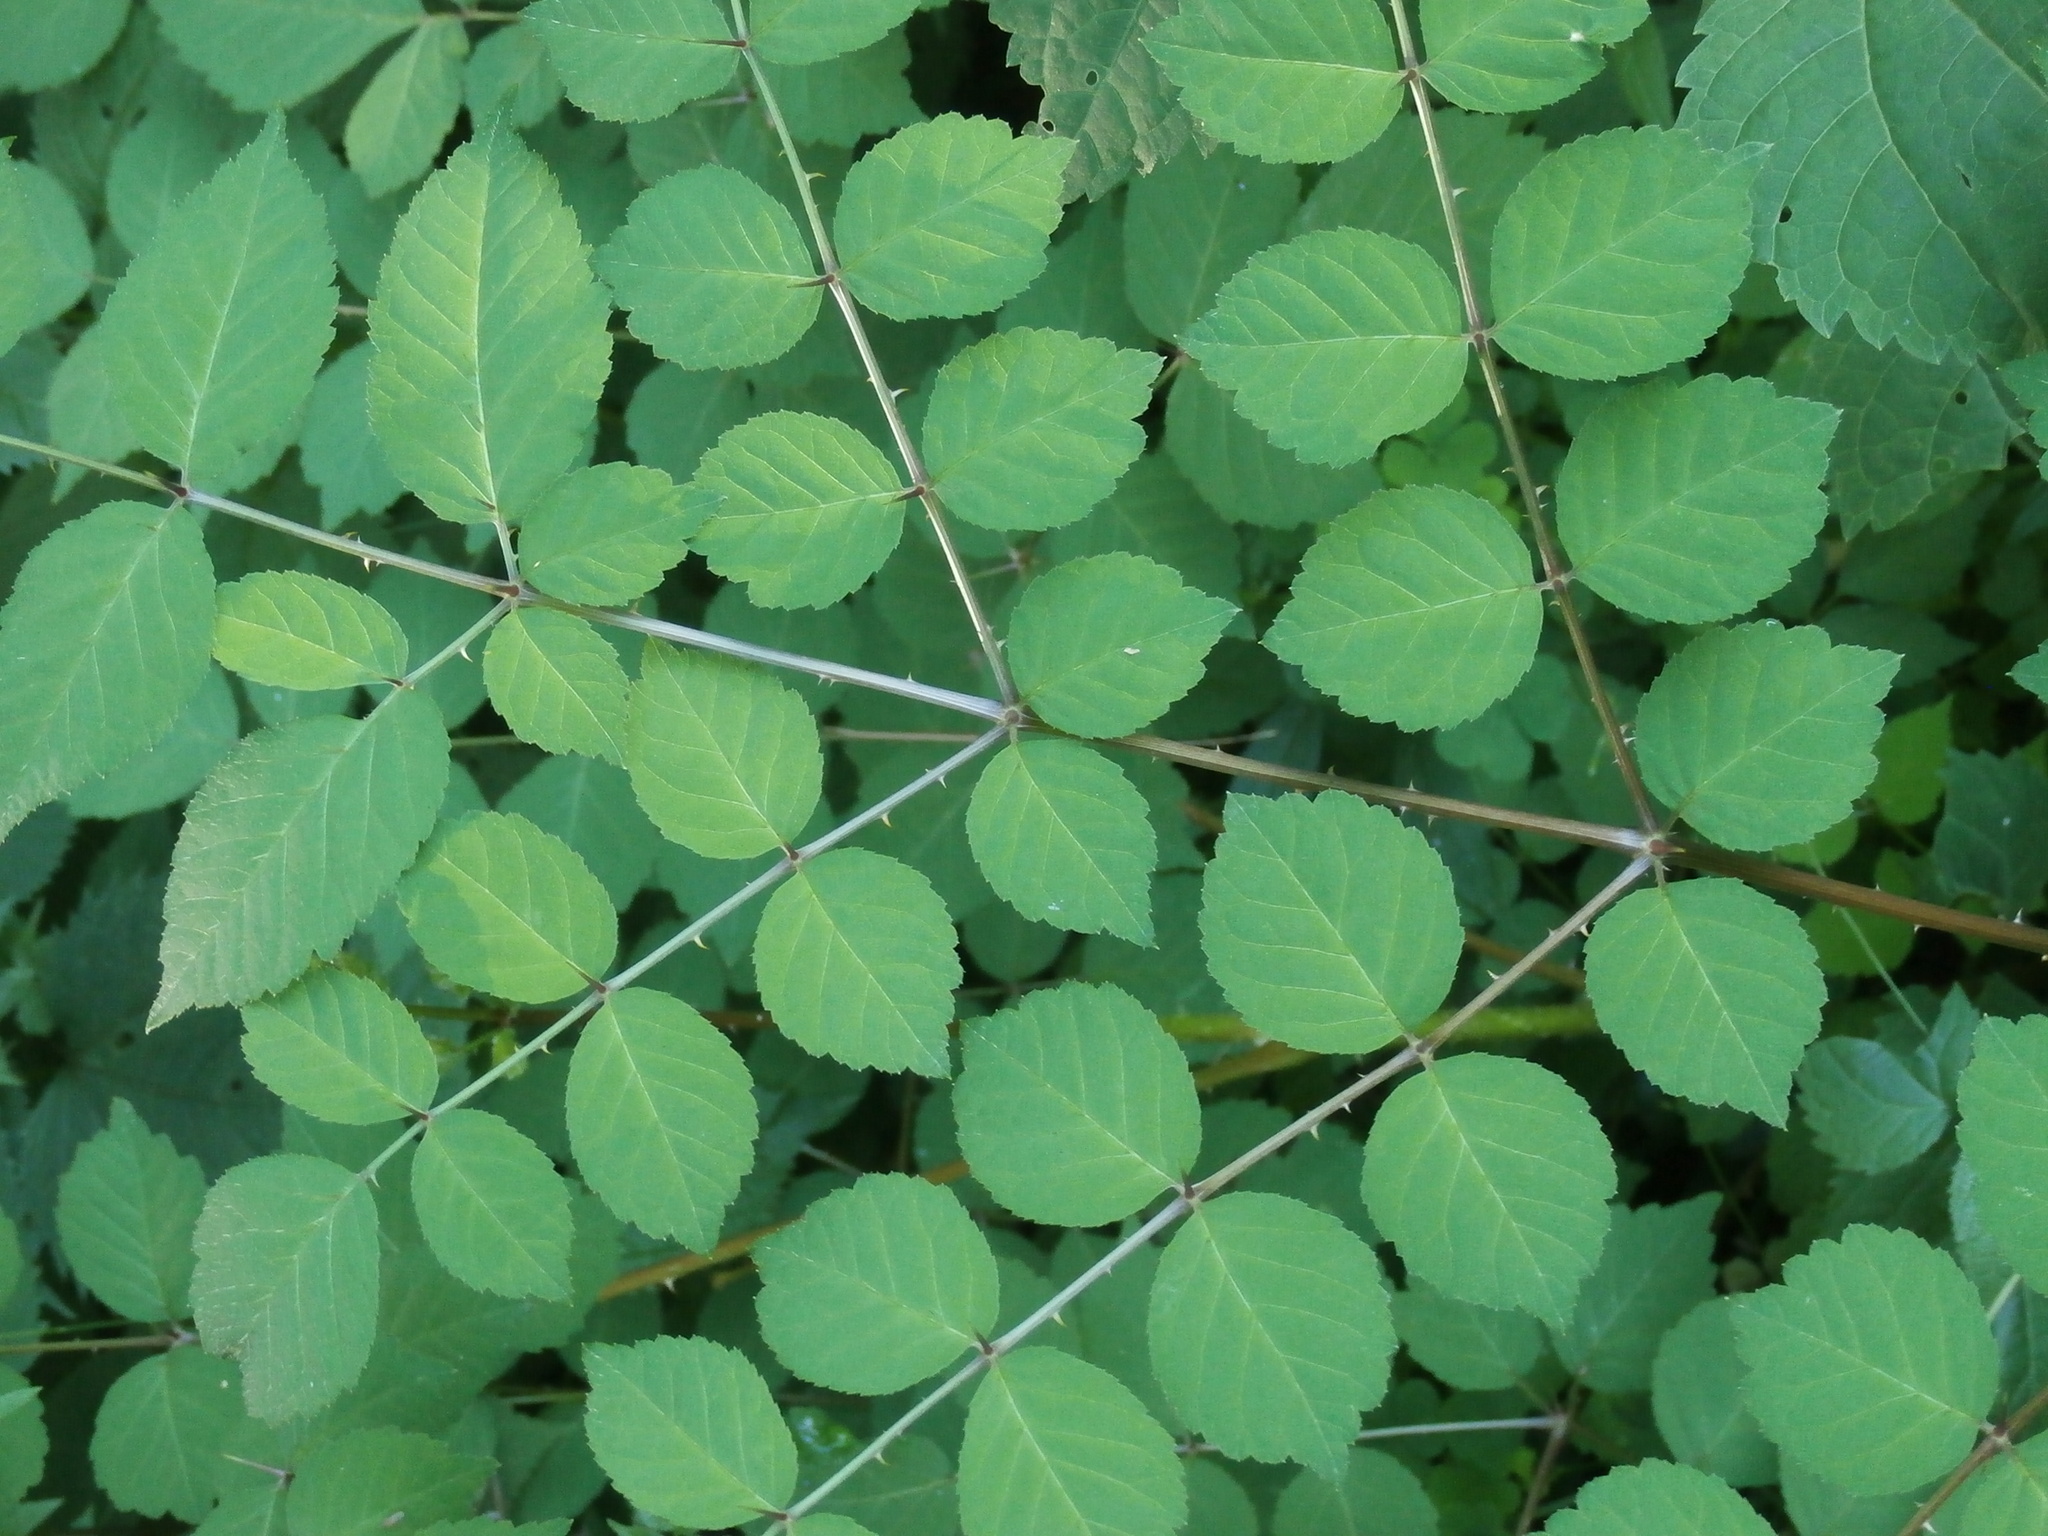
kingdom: Plantae
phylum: Tracheophyta
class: Magnoliopsida
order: Apiales
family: Araliaceae
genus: Aralia
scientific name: Aralia elata
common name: Japanese angelica-tree
